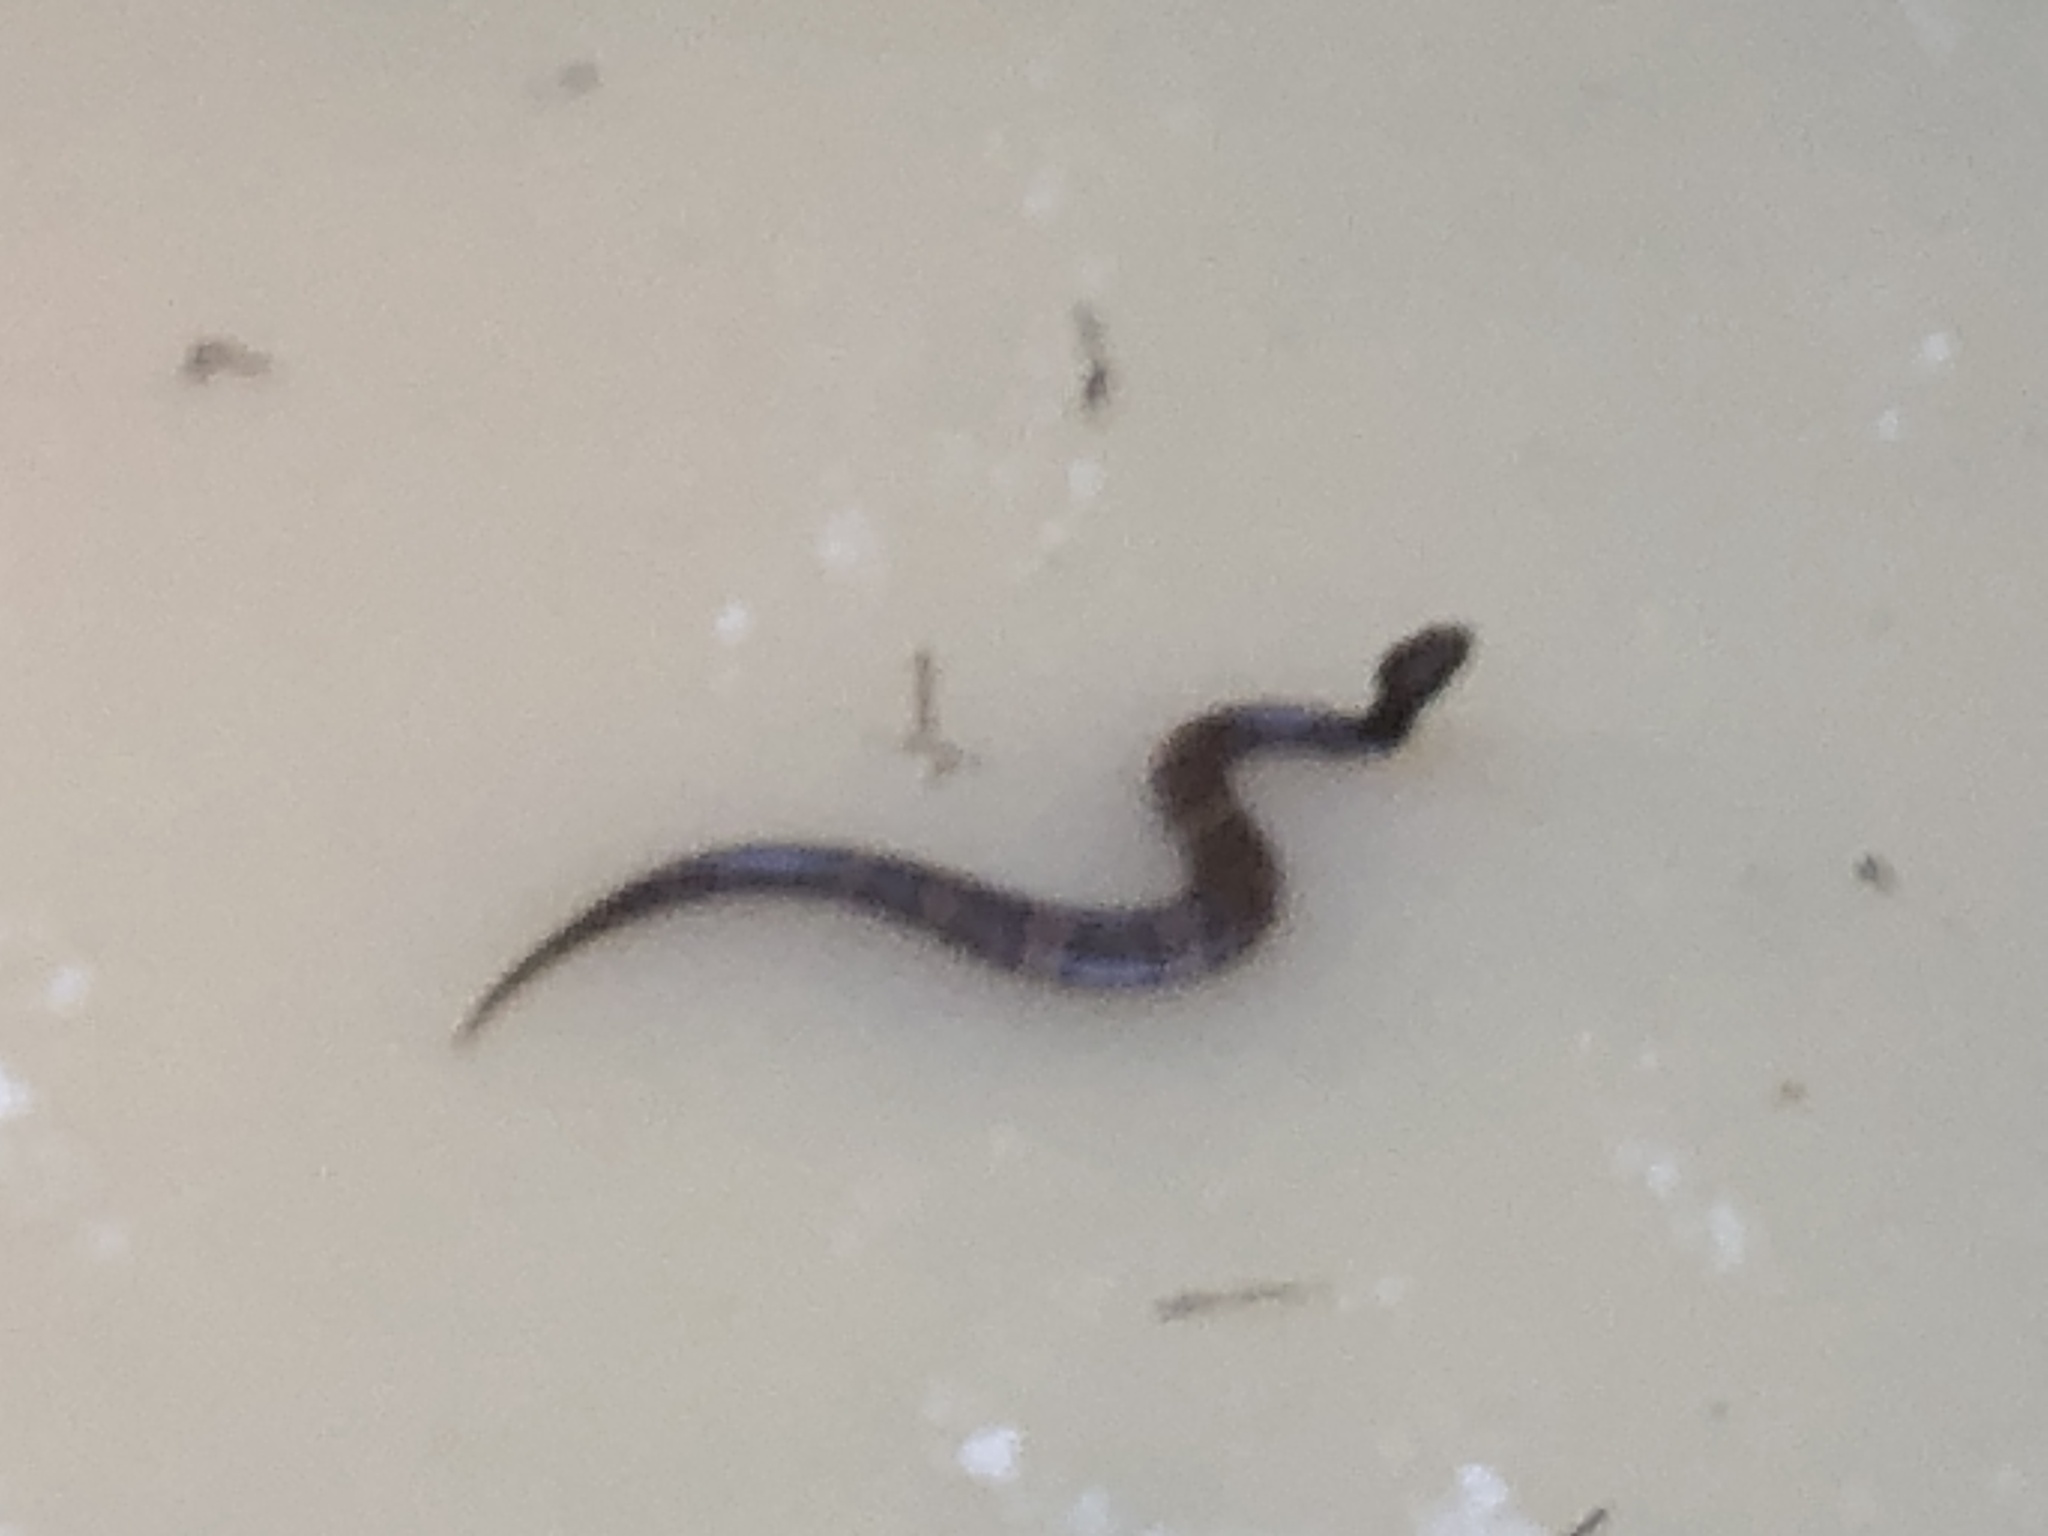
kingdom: Animalia
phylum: Chordata
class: Squamata
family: Viperidae
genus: Agkistrodon
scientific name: Agkistrodon
